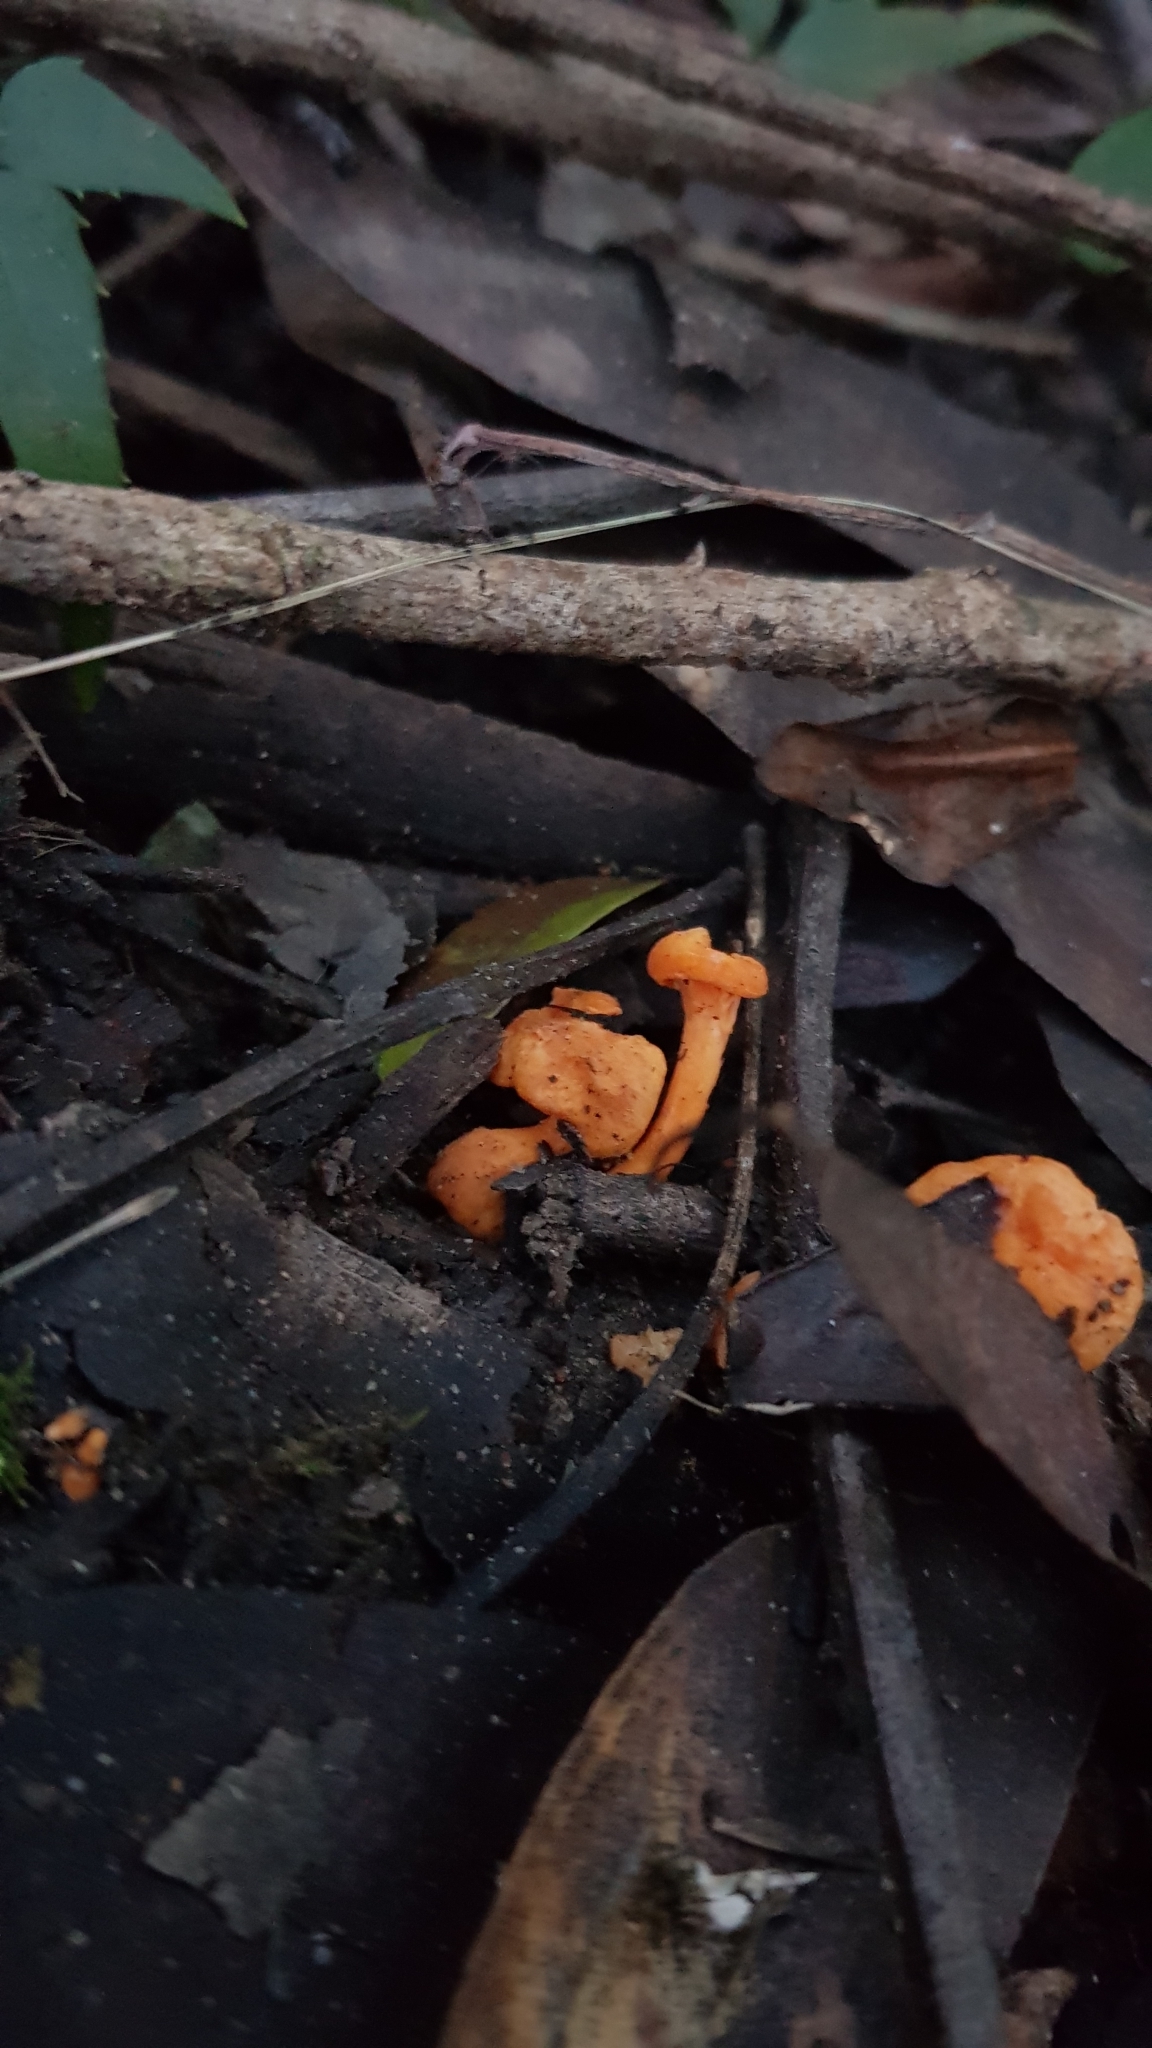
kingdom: Fungi
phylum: Basidiomycota
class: Agaricomycetes
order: Cantharellales
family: Hydnaceae
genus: Cantharellus
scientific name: Cantharellus
